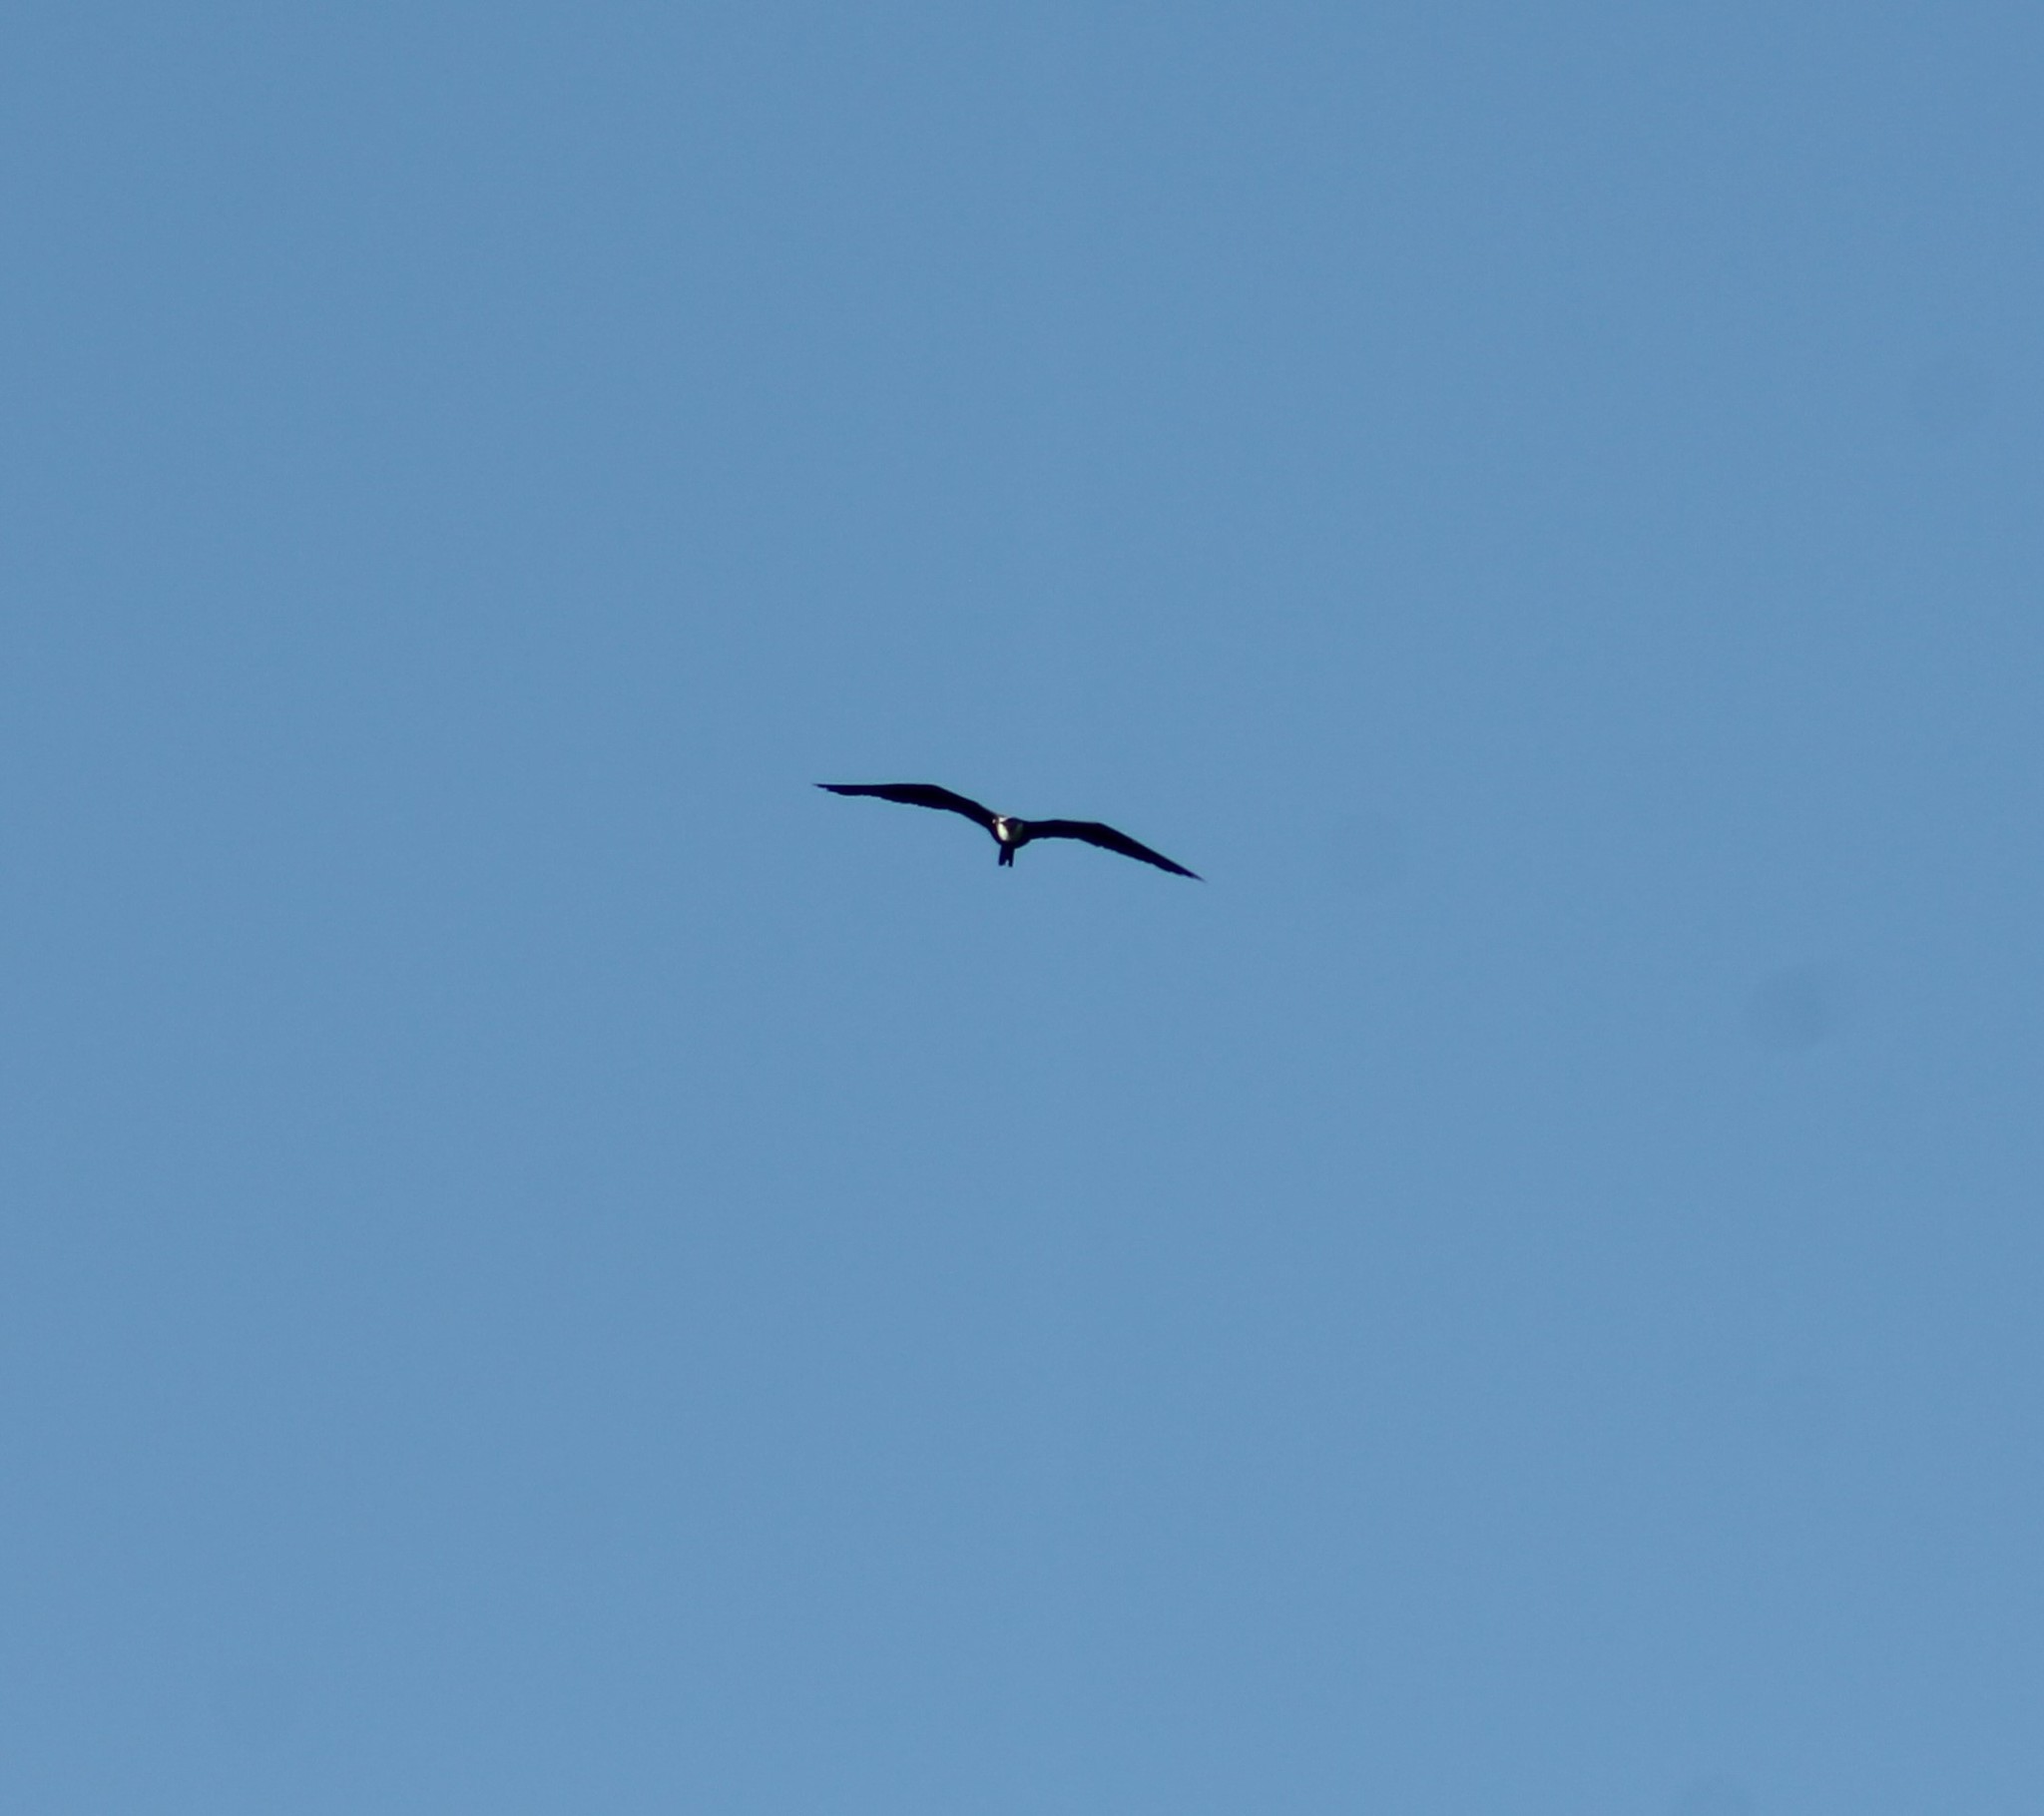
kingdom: Animalia
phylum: Chordata
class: Aves
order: Suliformes
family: Fregatidae
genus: Fregata
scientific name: Fregata magnificens
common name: Magnificent frigatebird
